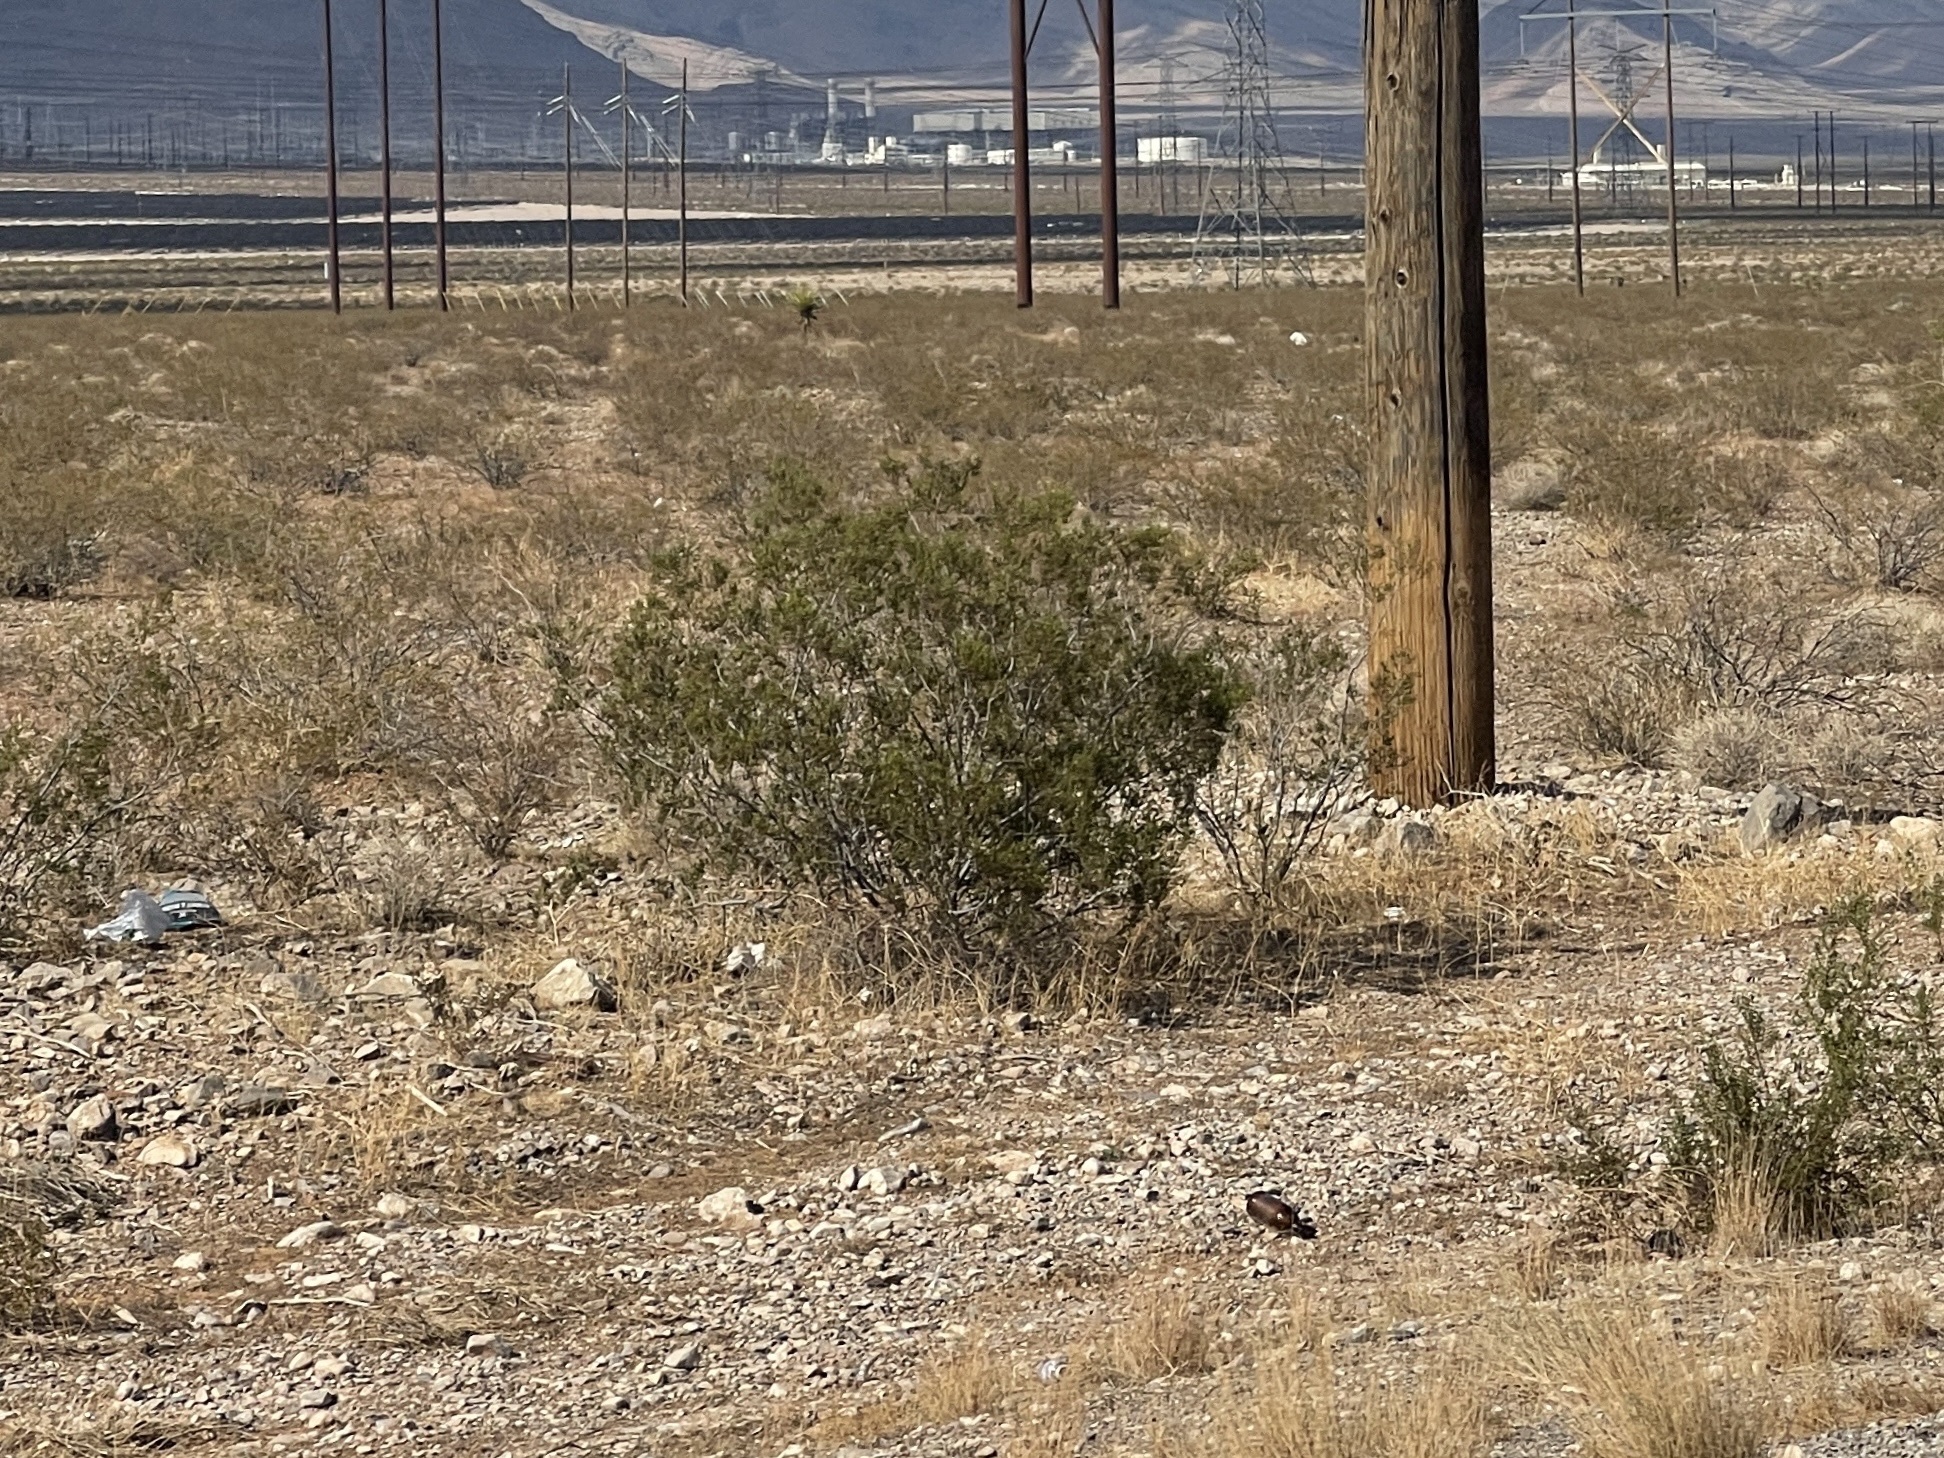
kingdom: Plantae
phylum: Tracheophyta
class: Magnoliopsida
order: Zygophyllales
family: Zygophyllaceae
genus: Larrea
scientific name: Larrea tridentata
